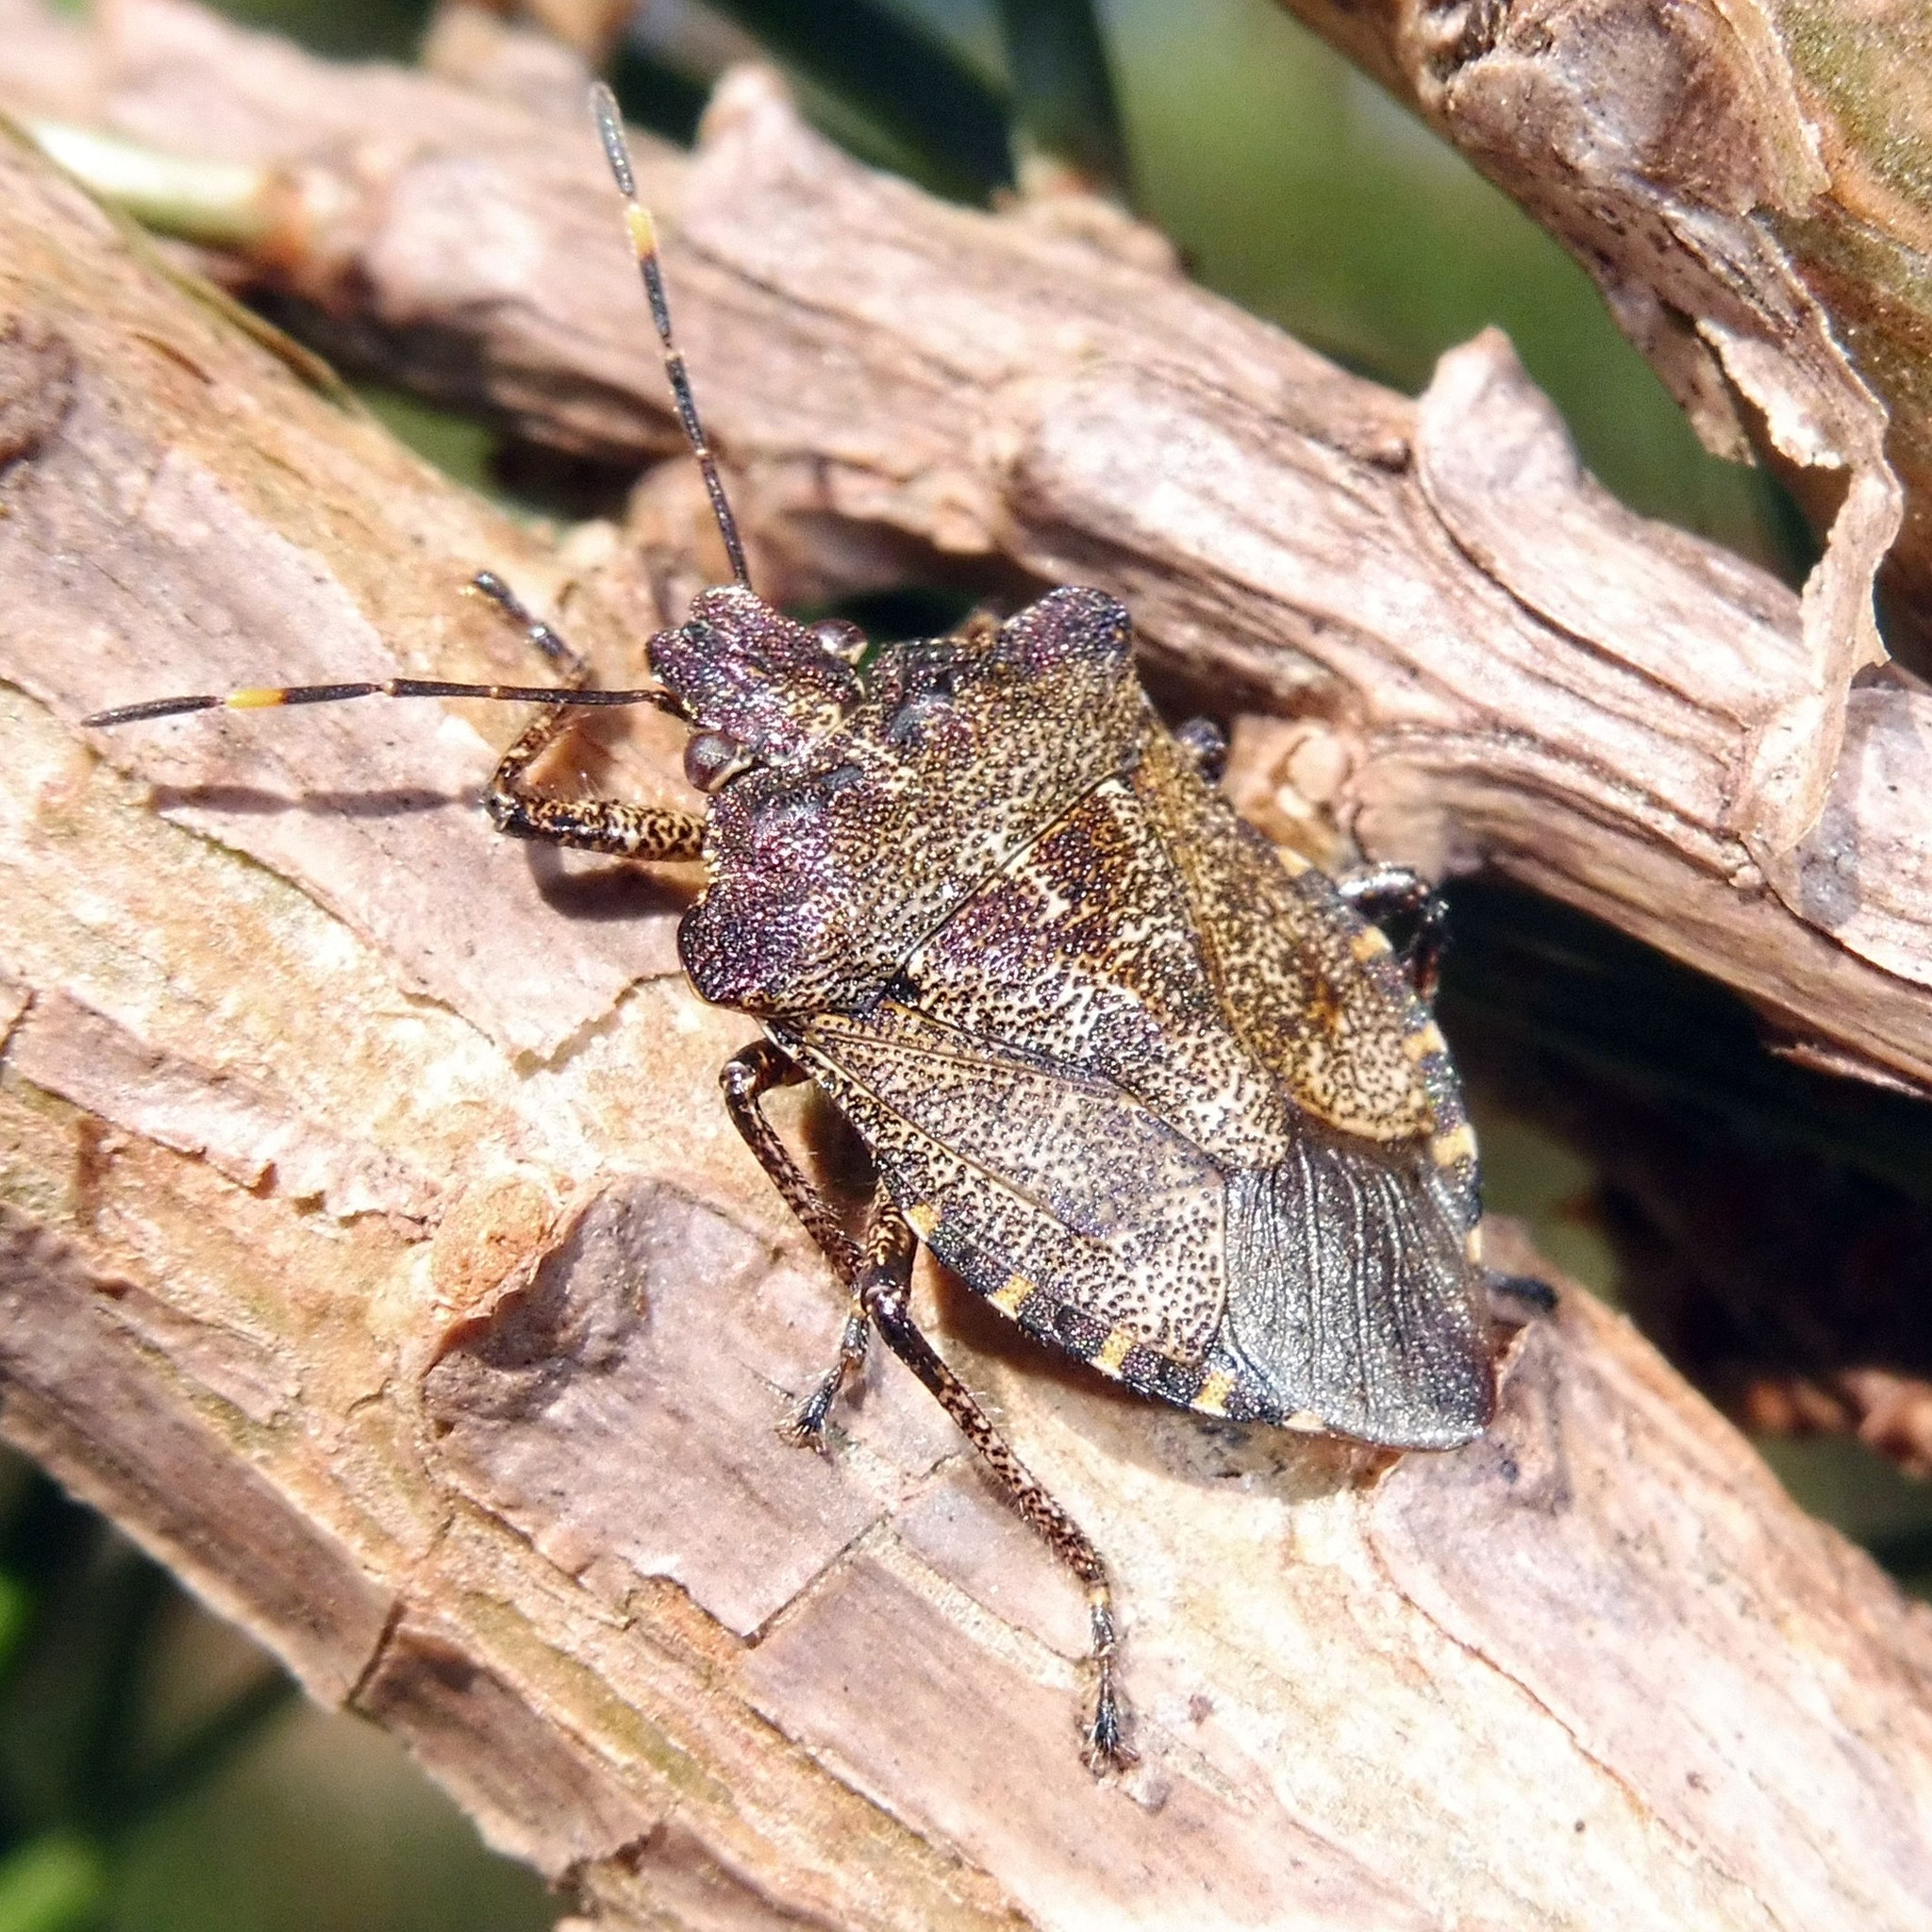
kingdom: Animalia
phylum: Arthropoda
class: Insecta
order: Hemiptera
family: Pentatomidae
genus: Troilus
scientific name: Troilus luridus
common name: Bronze shieldbug
